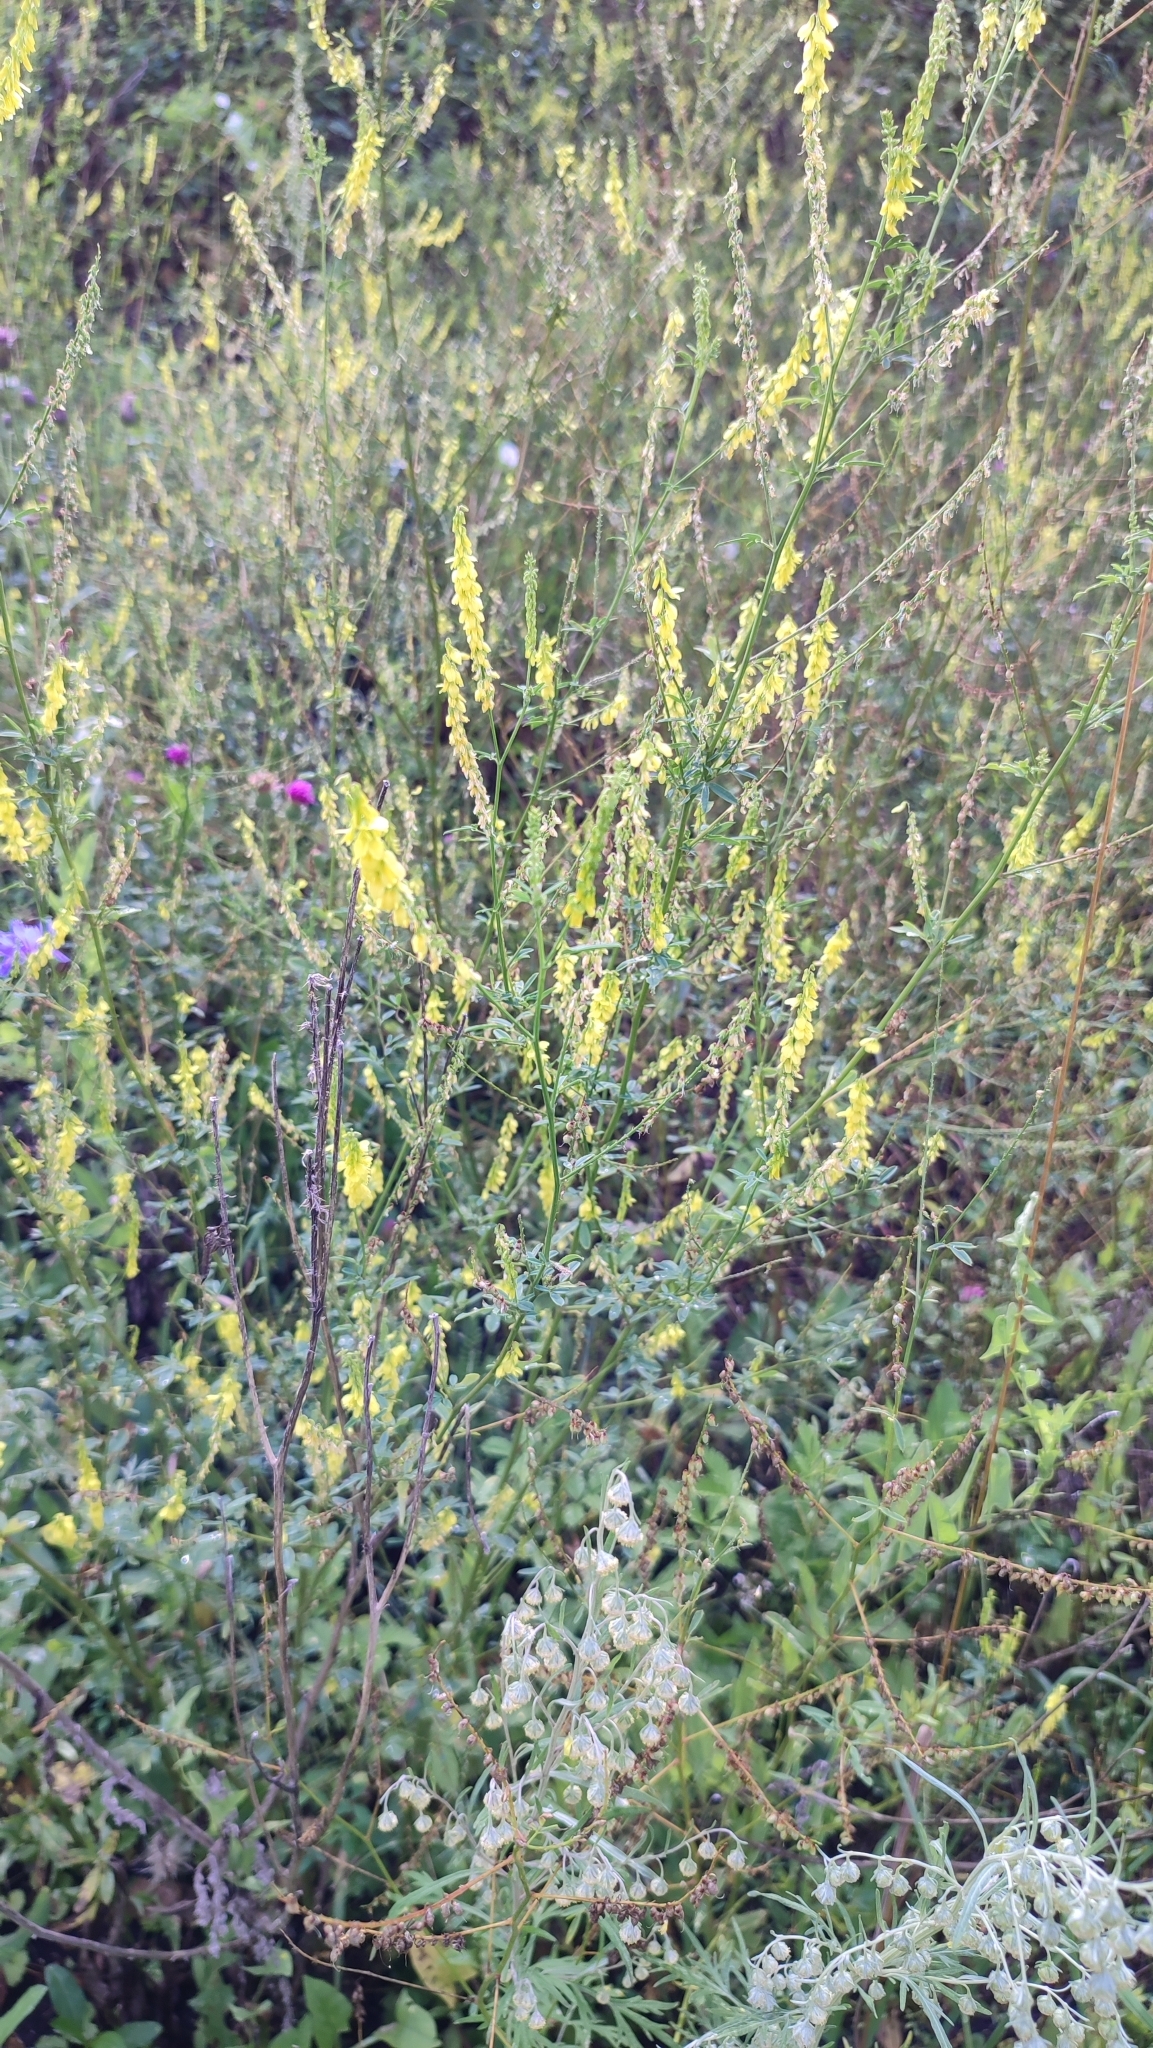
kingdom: Plantae
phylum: Tracheophyta
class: Magnoliopsida
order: Fabales
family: Fabaceae
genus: Melilotus
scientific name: Melilotus officinalis
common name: Sweetclover
